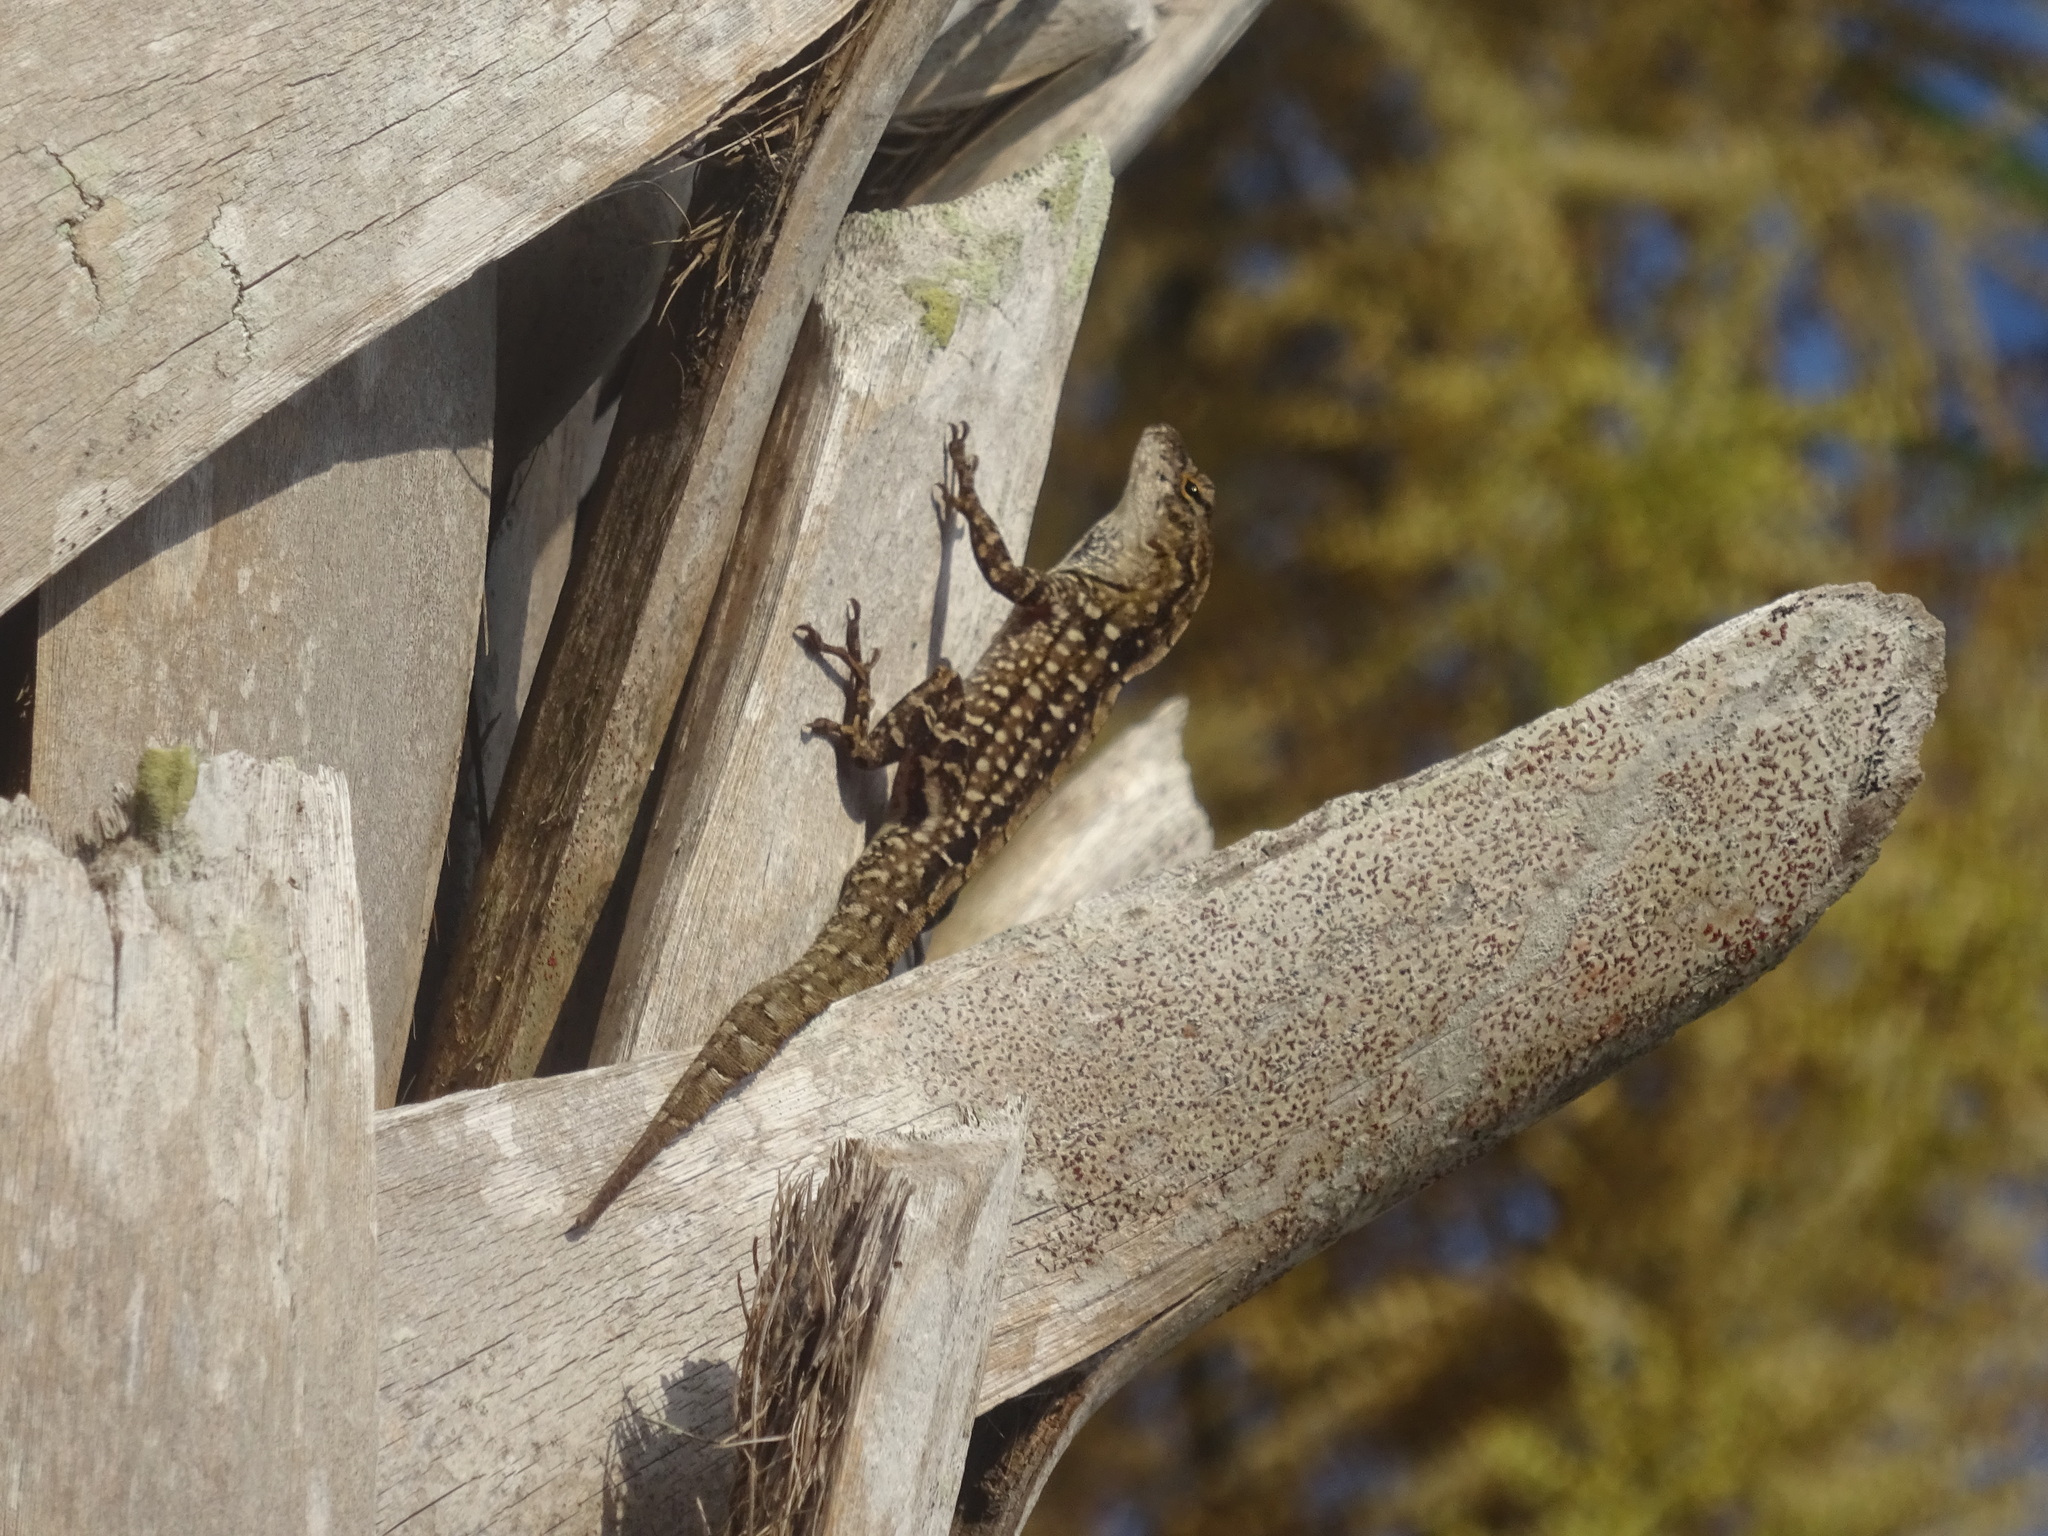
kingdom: Animalia
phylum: Chordata
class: Squamata
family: Dactyloidae
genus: Anolis
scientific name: Anolis sagrei
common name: Brown anole
